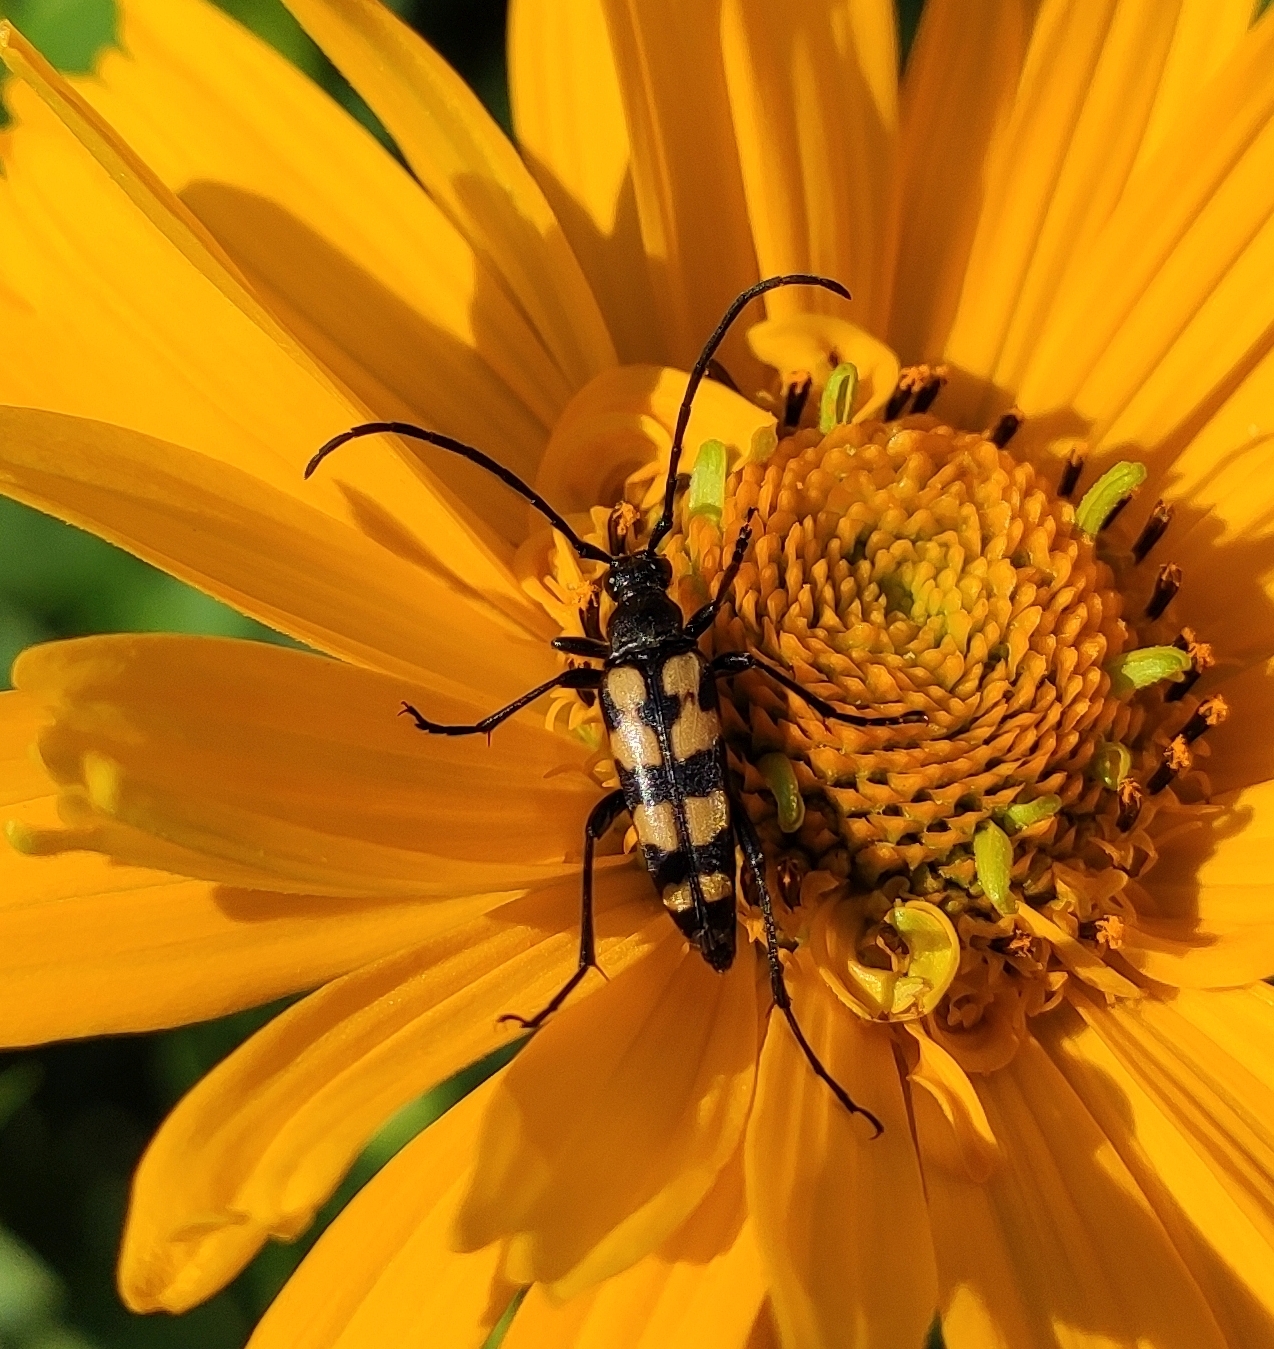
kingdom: Animalia
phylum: Arthropoda
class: Insecta
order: Coleoptera
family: Cerambycidae
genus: Leptura
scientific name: Leptura quadrifasciata
